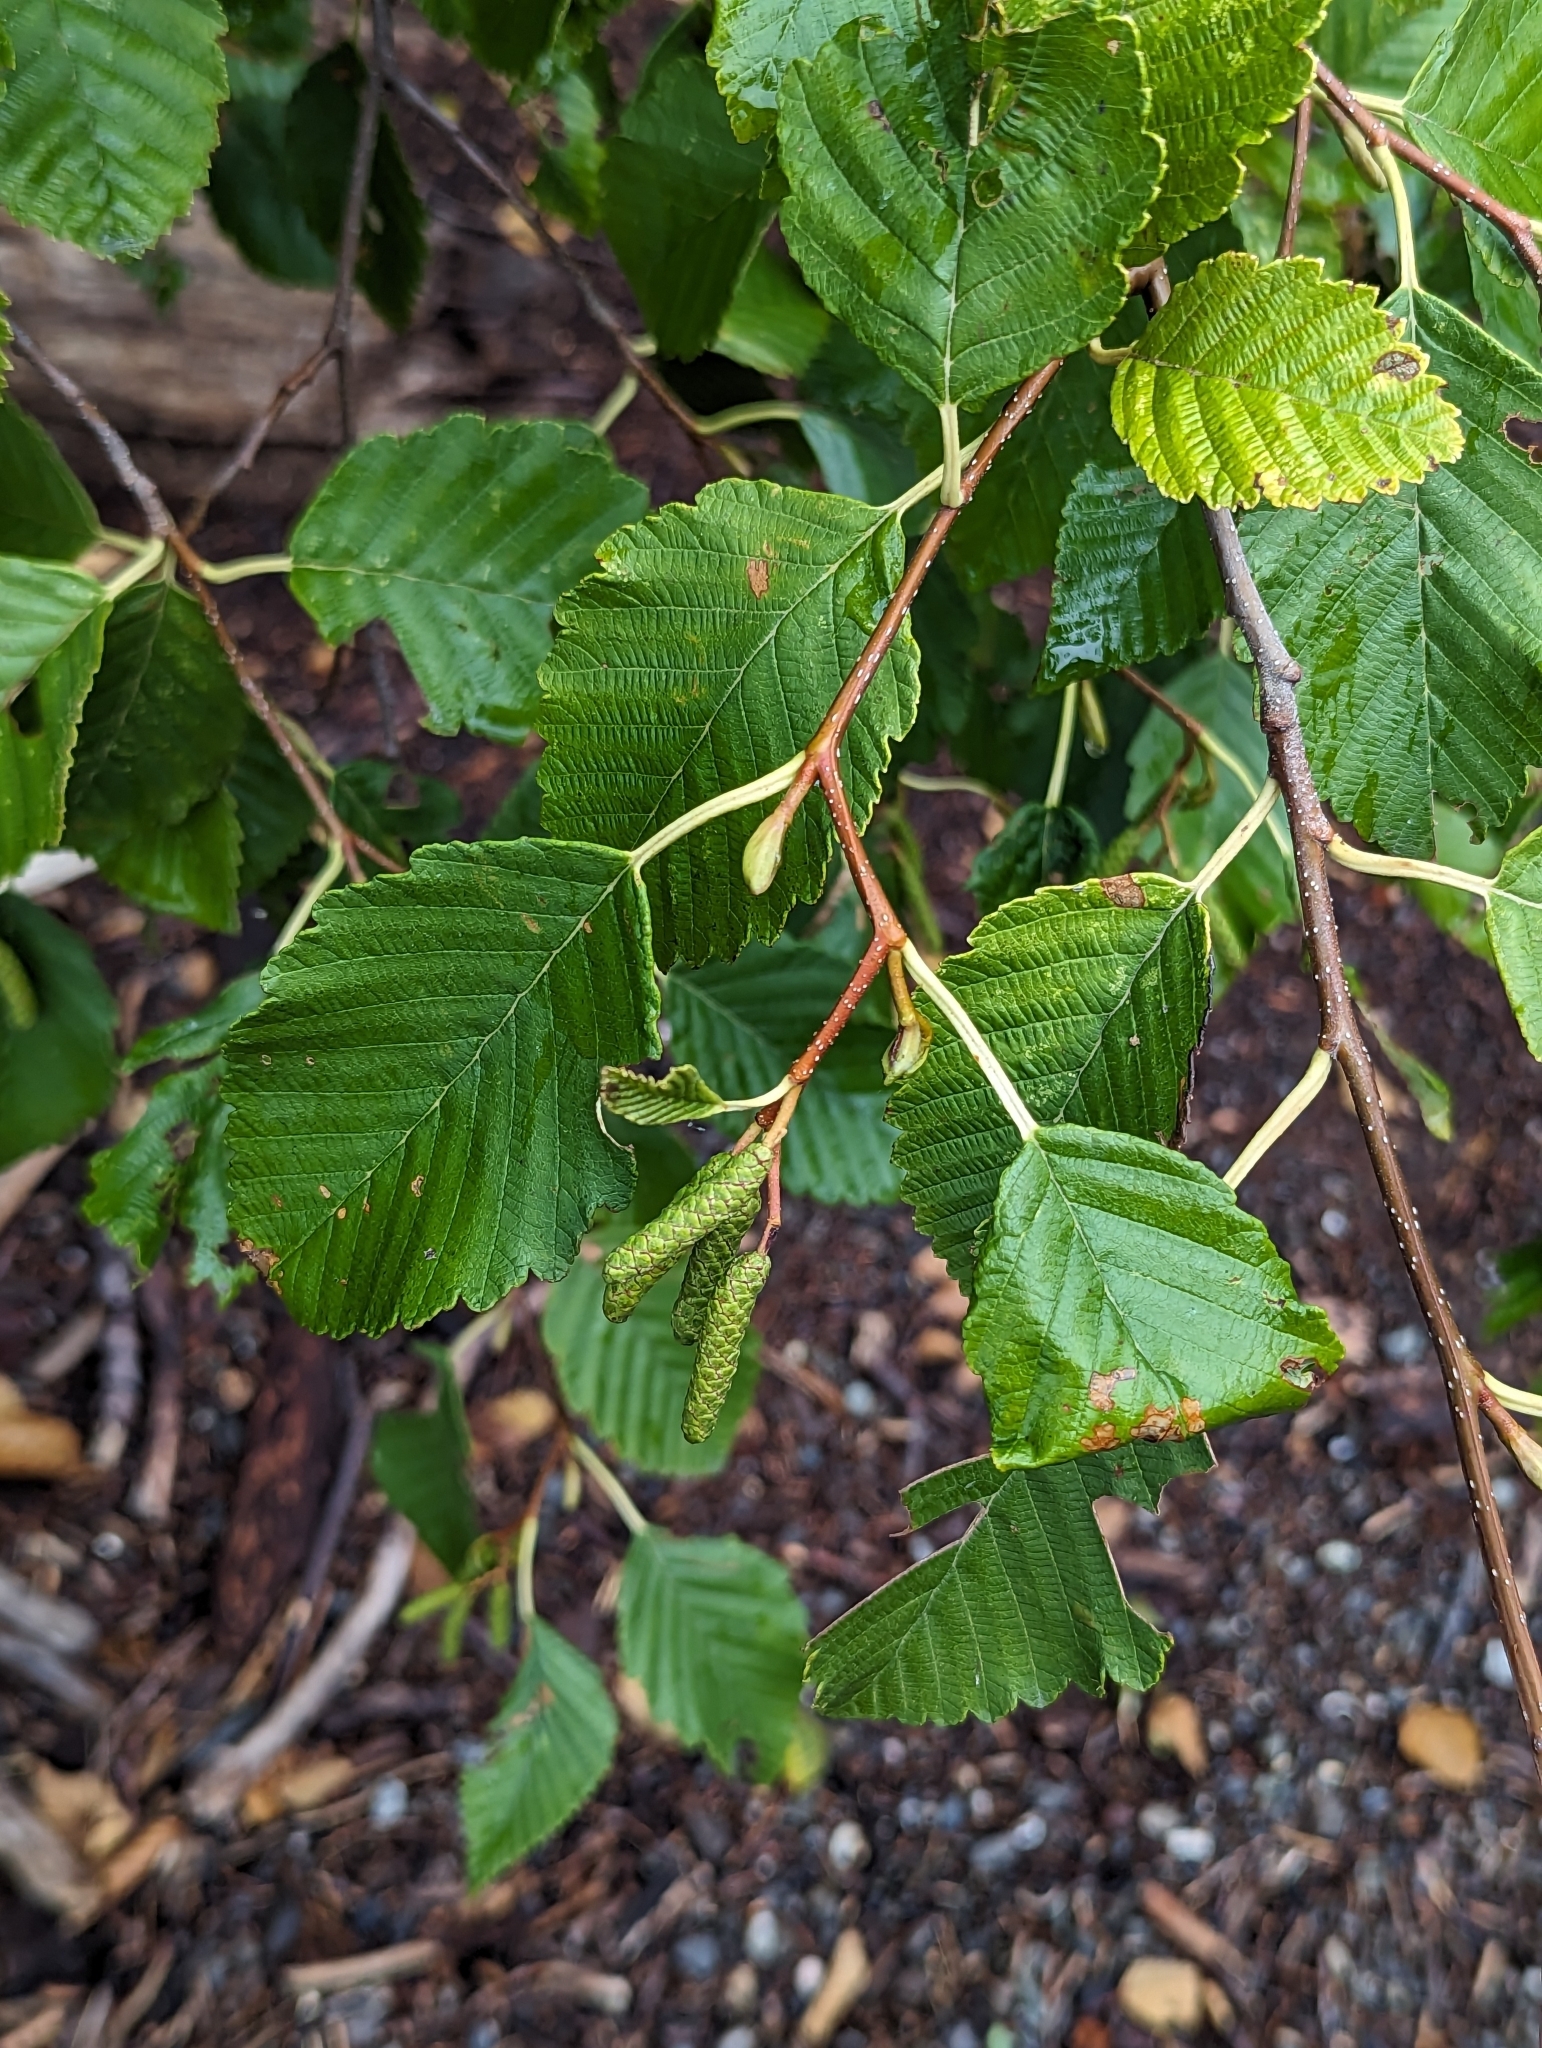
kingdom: Plantae
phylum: Tracheophyta
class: Magnoliopsida
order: Fagales
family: Betulaceae
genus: Alnus
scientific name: Alnus rubra
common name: Red alder
